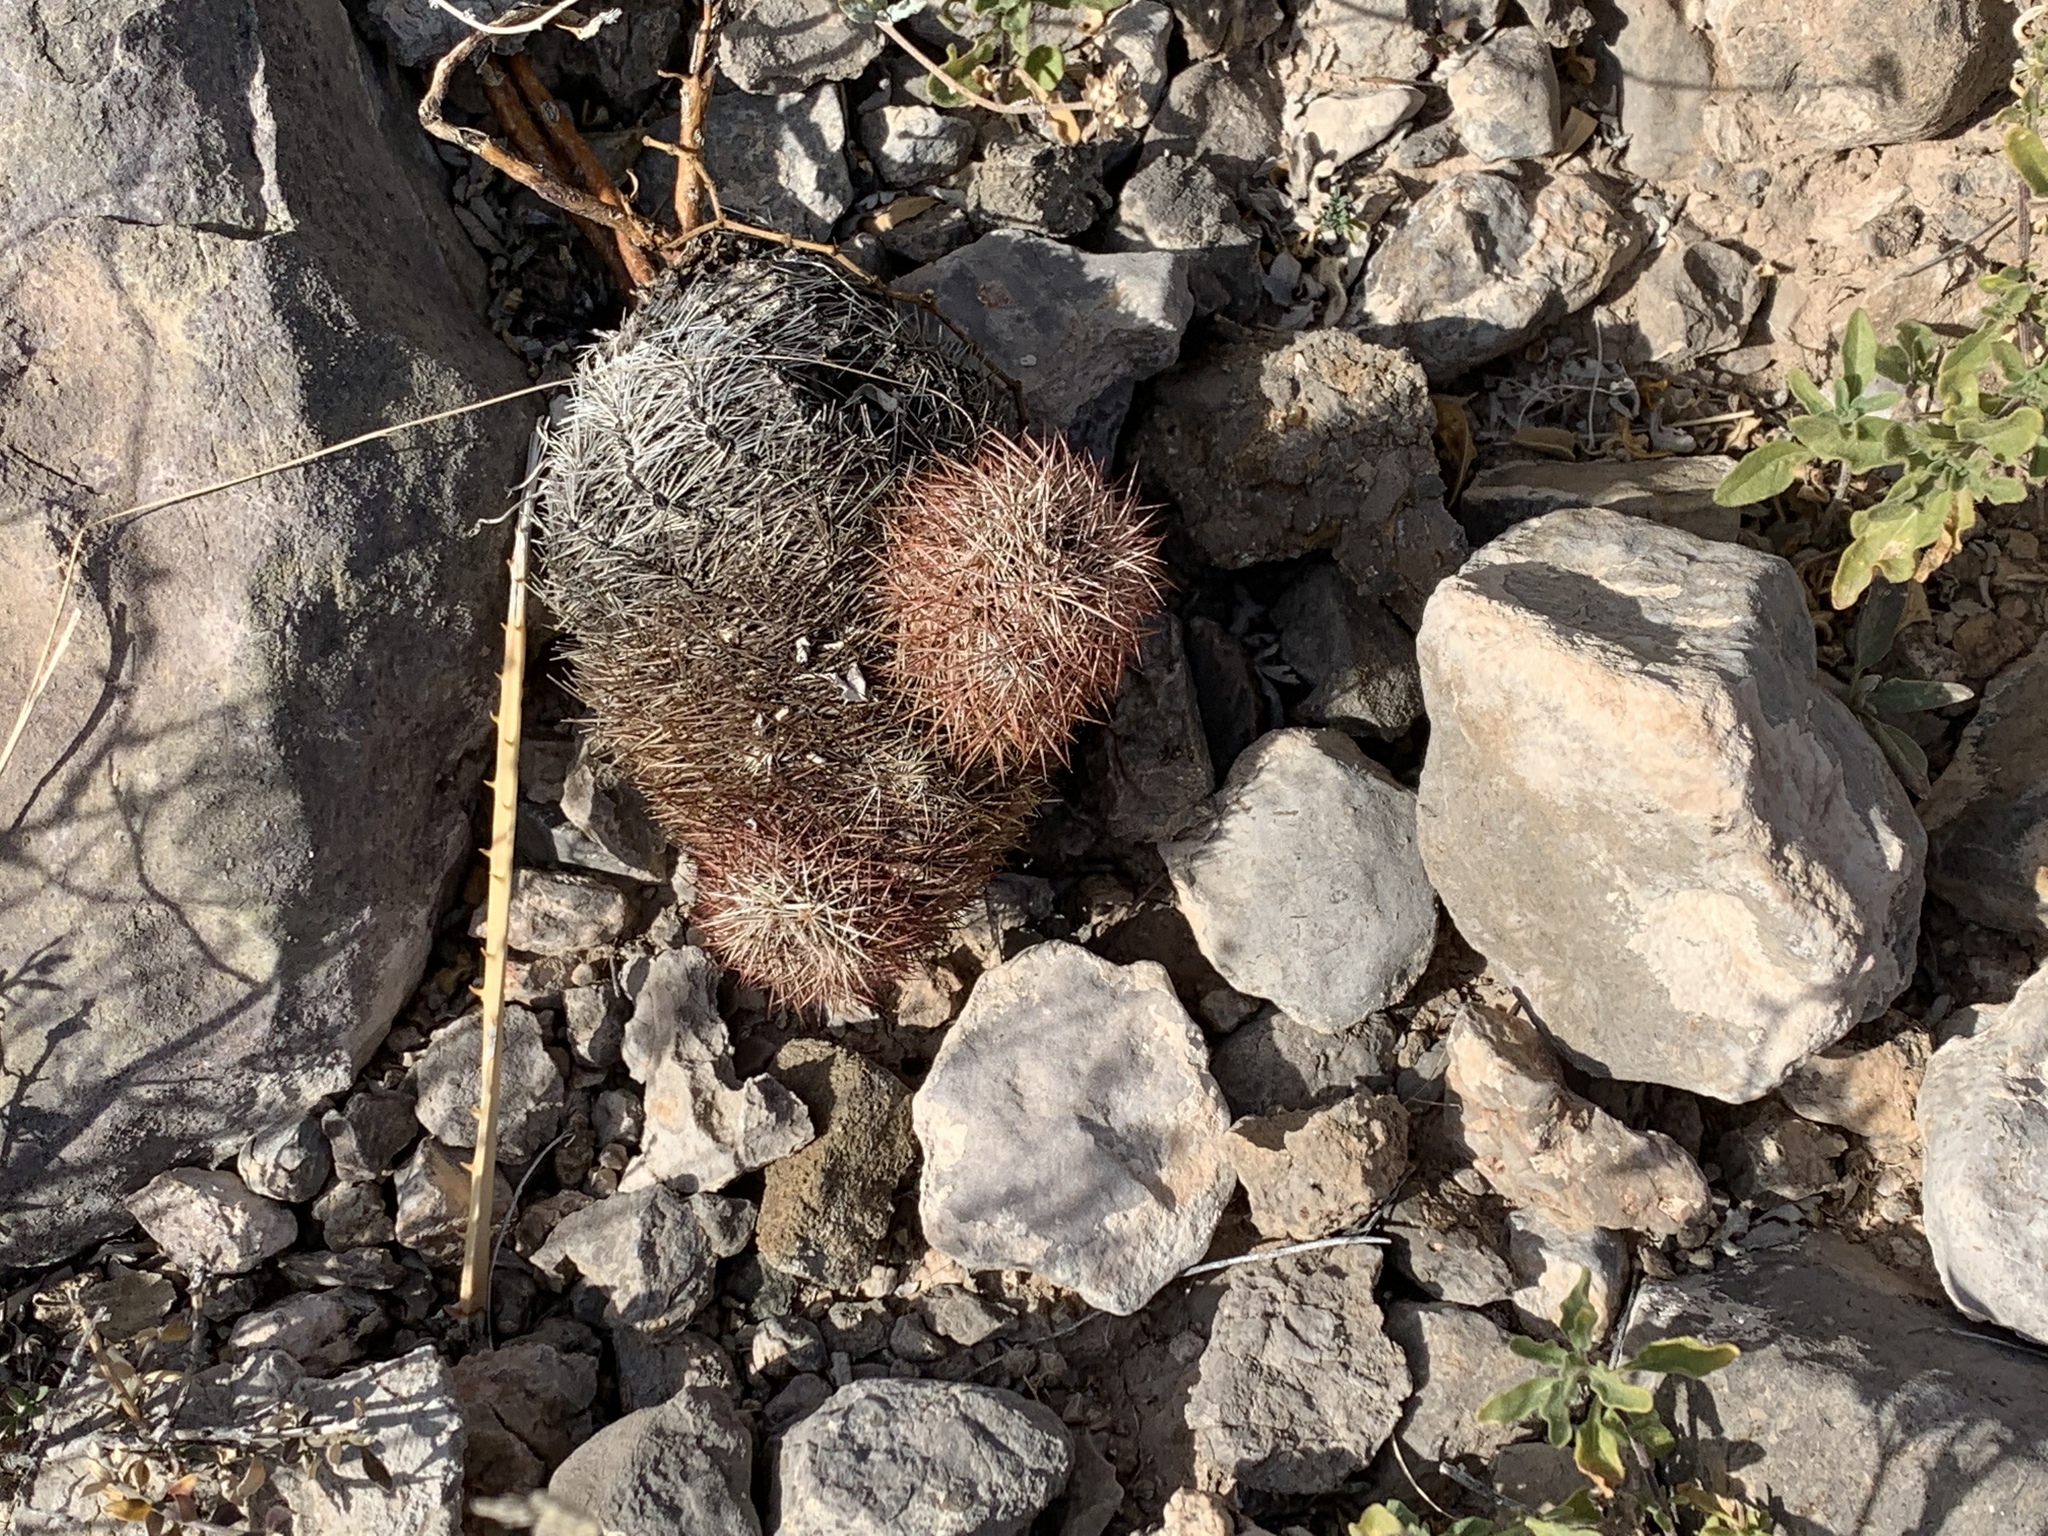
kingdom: Plantae
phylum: Tracheophyta
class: Magnoliopsida
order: Caryophyllales
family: Cactaceae
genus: Echinocereus
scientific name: Echinocereus dasyacanthus
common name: Spiny hedgehog cactus
